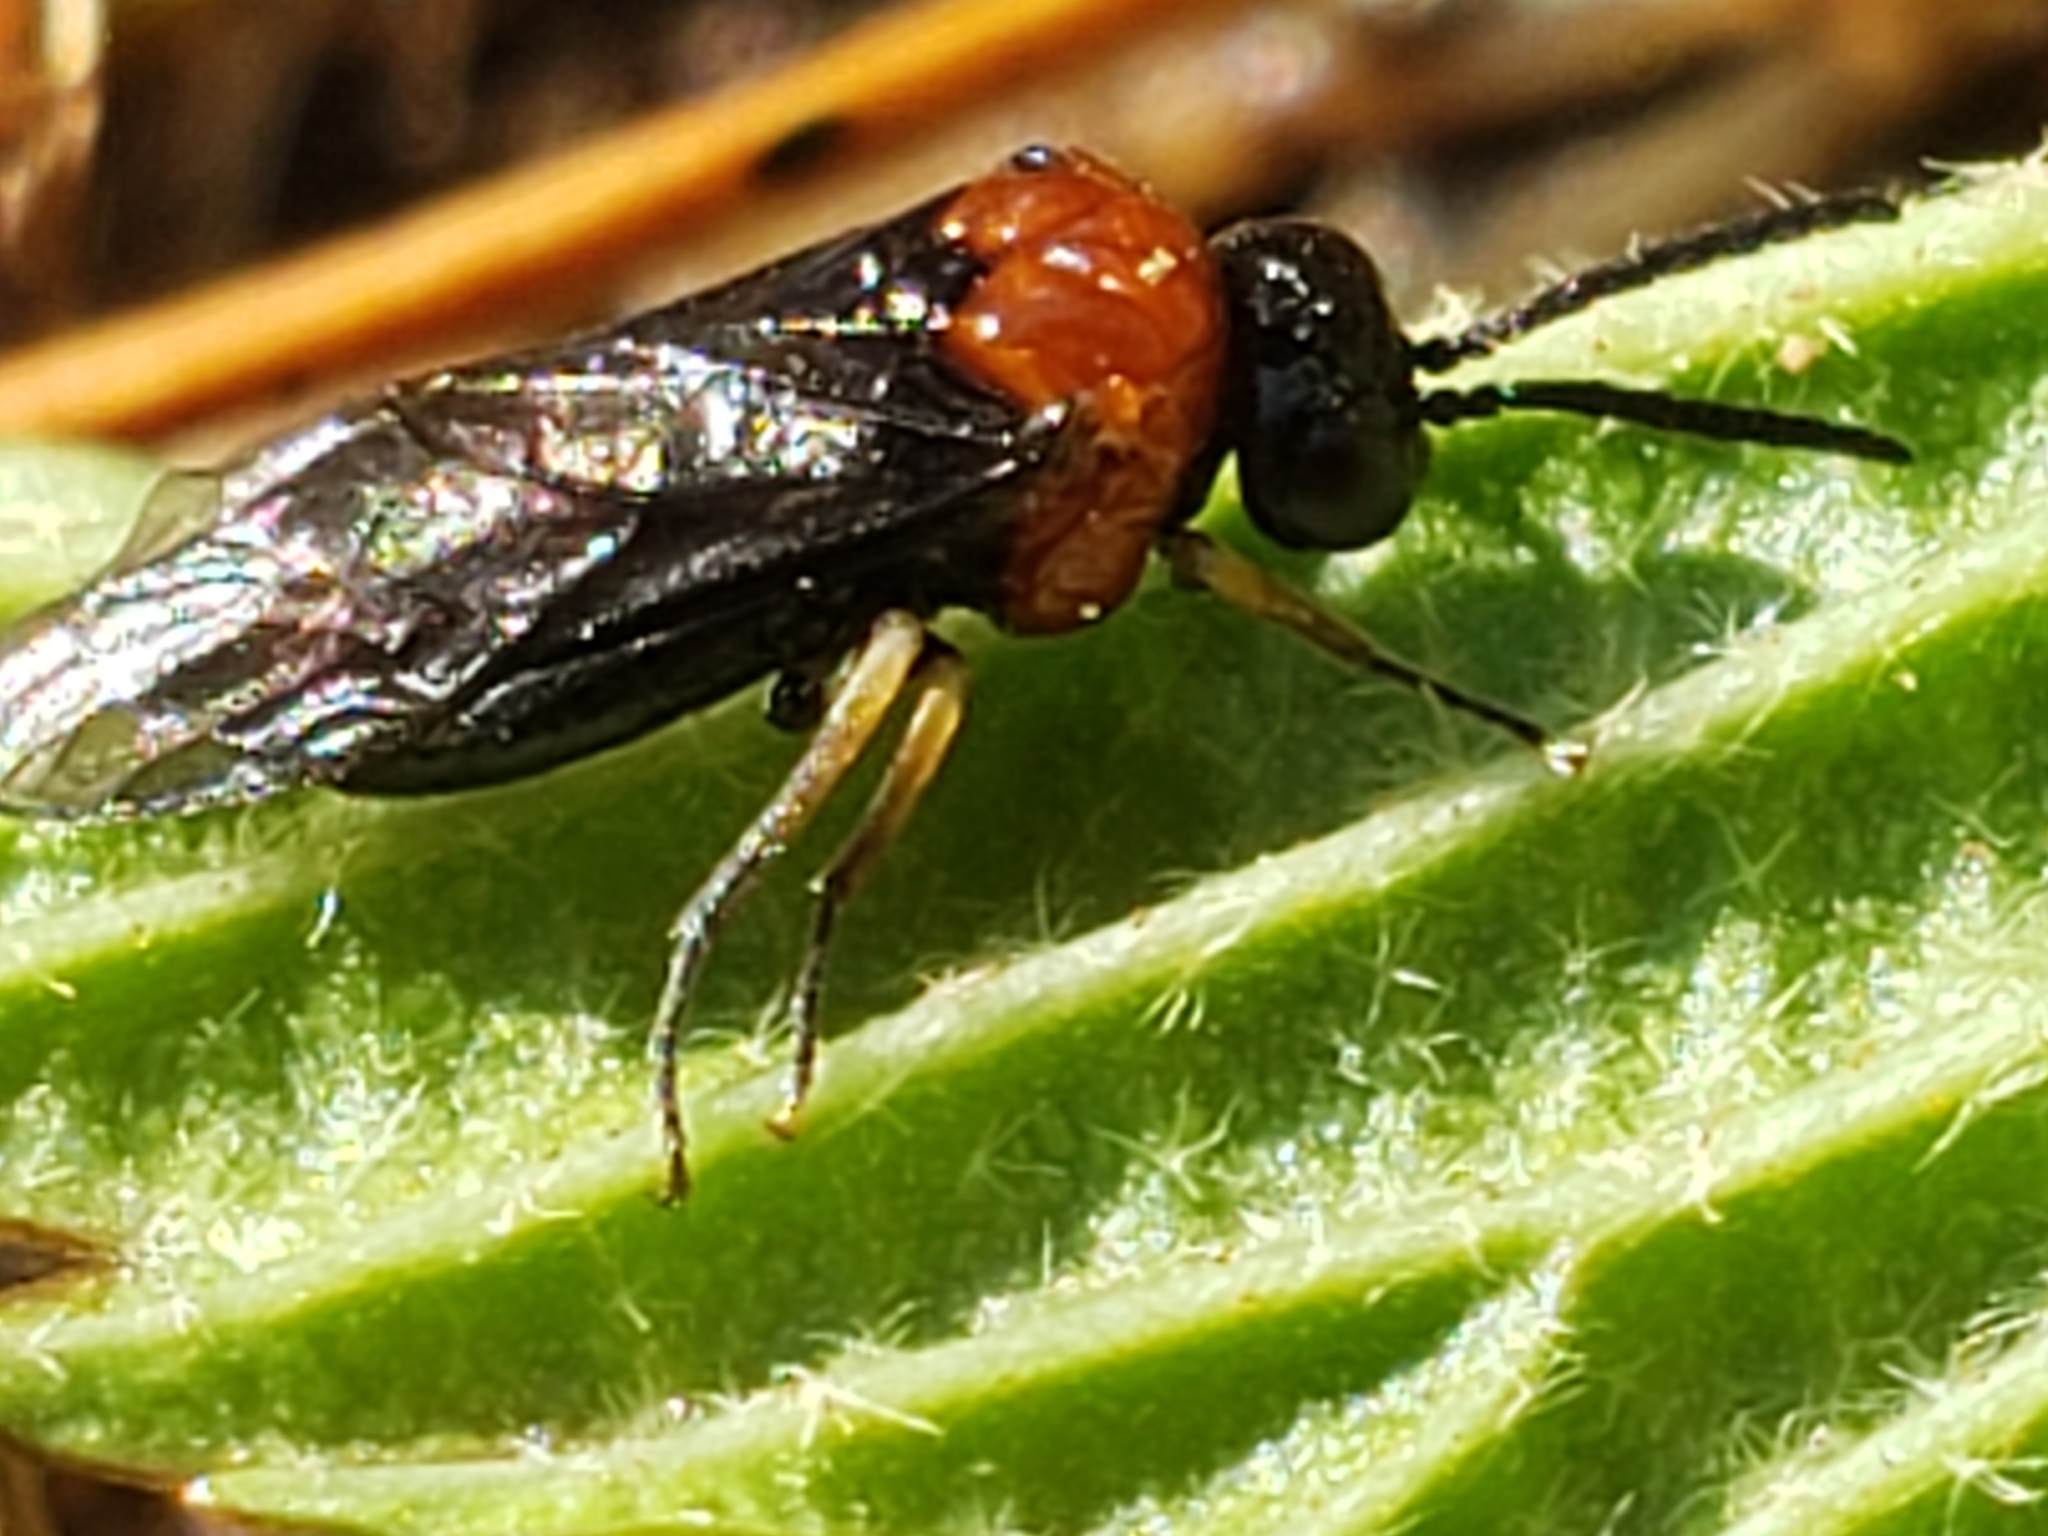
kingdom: Animalia
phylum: Arthropoda
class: Insecta
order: Hymenoptera
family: Tenthredinidae
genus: Eutomostethus
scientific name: Eutomostethus ephippium
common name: Tenthredid wasp
